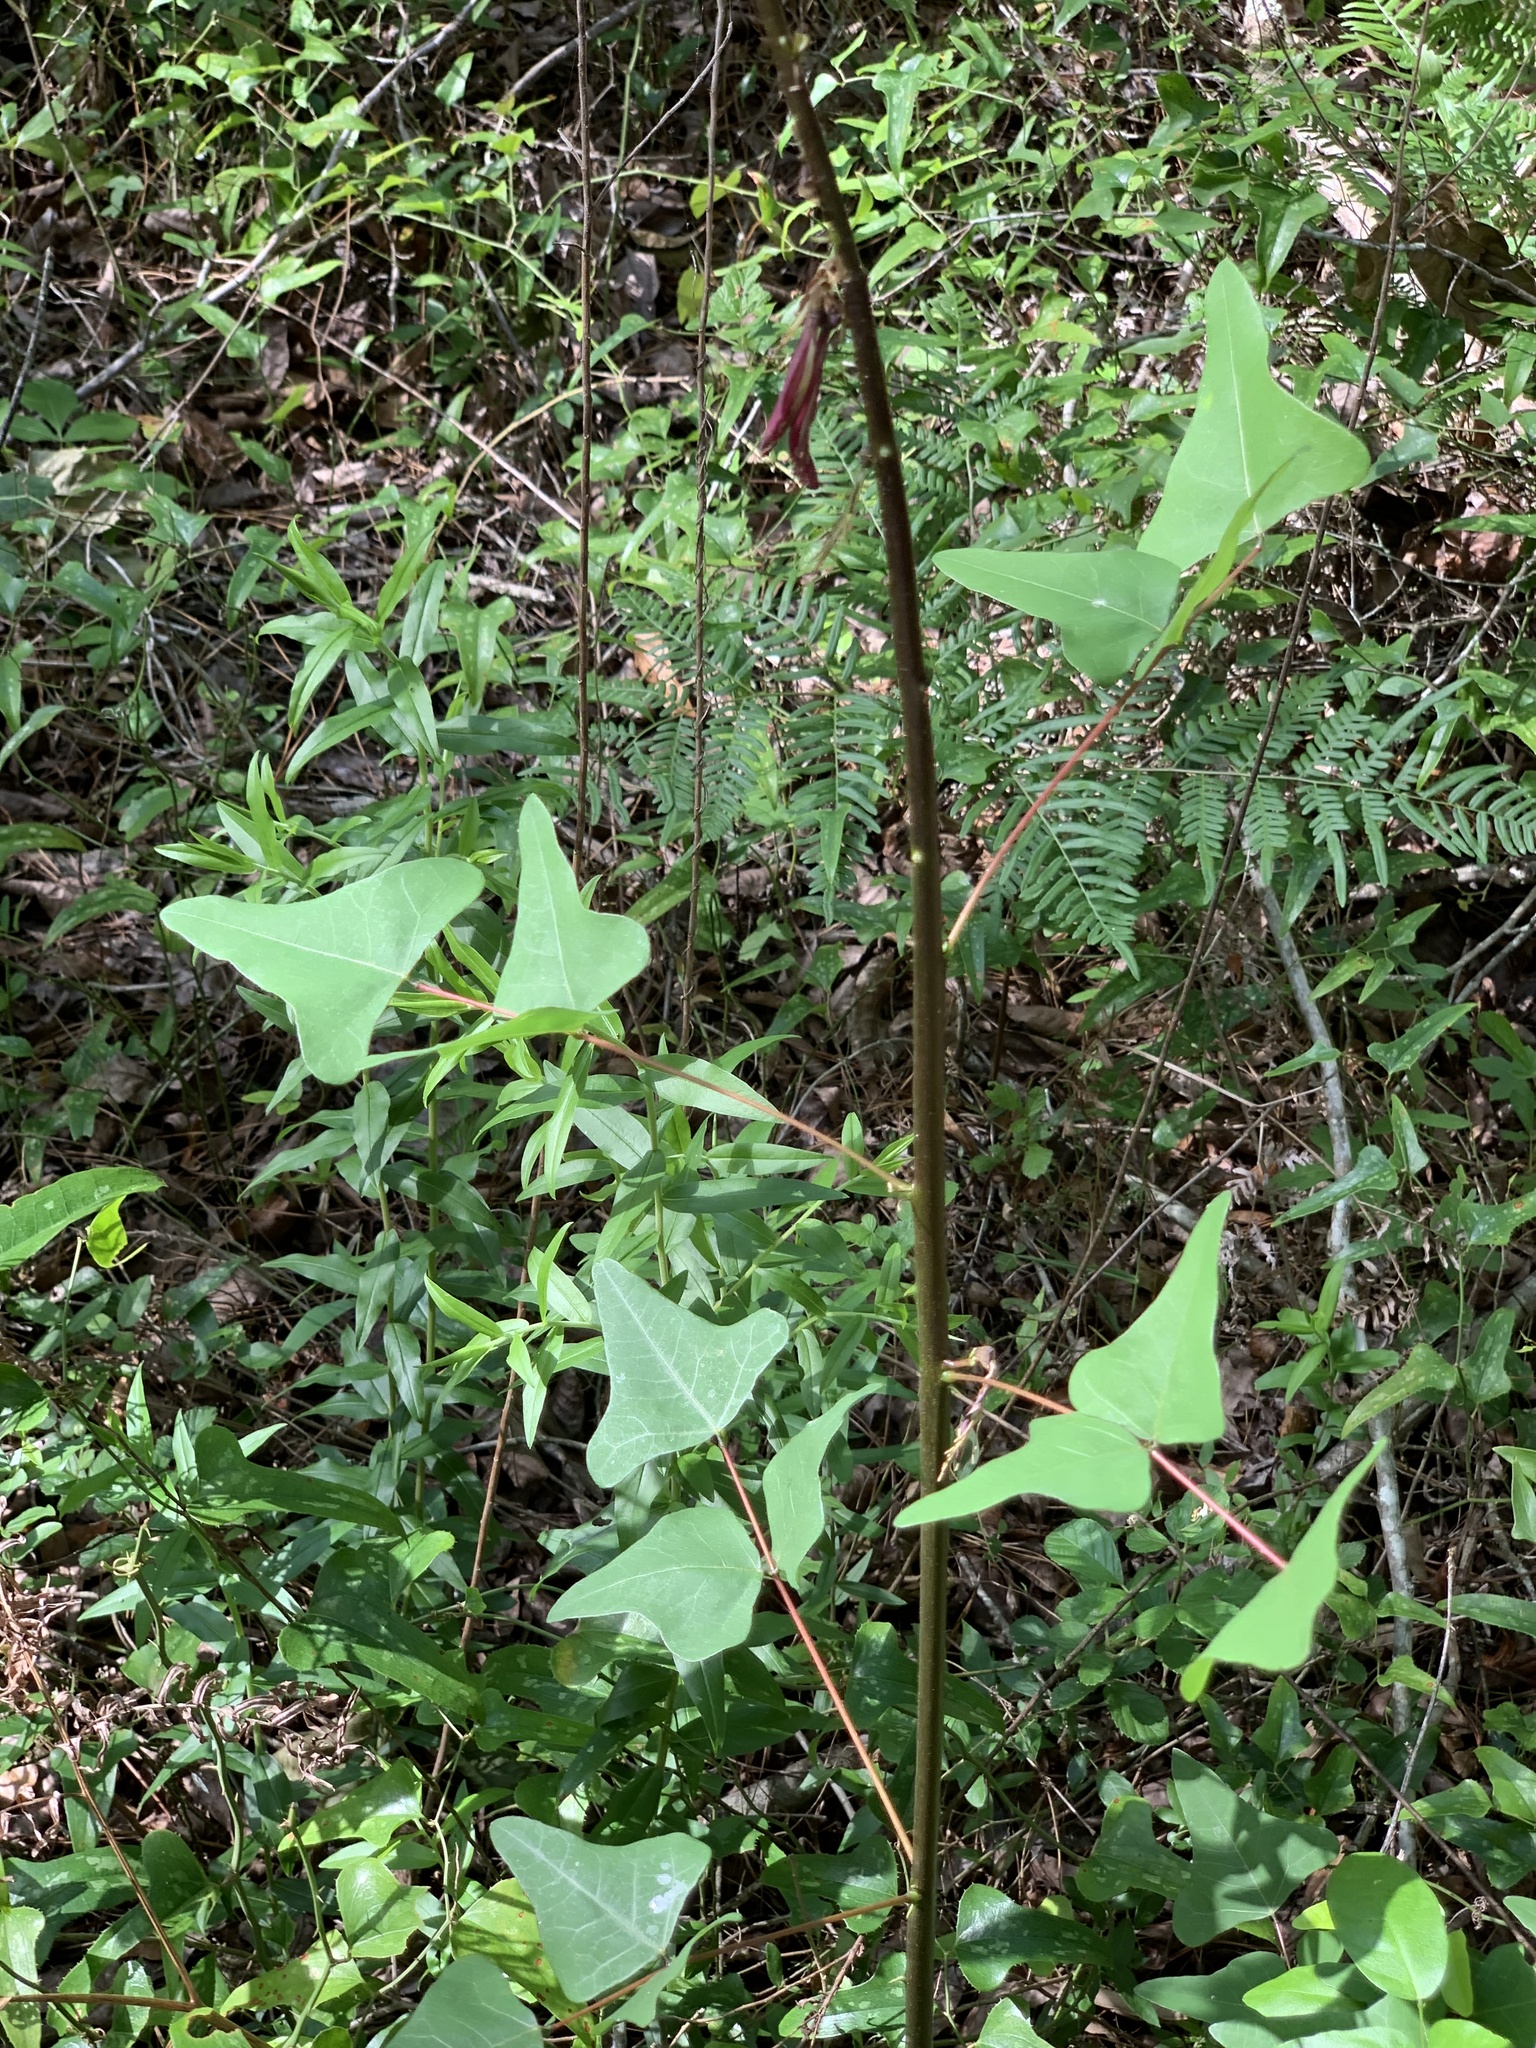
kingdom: Plantae
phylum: Tracheophyta
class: Magnoliopsida
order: Fabales
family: Fabaceae
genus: Erythrina
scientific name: Erythrina herbacea
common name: Coral-bean
